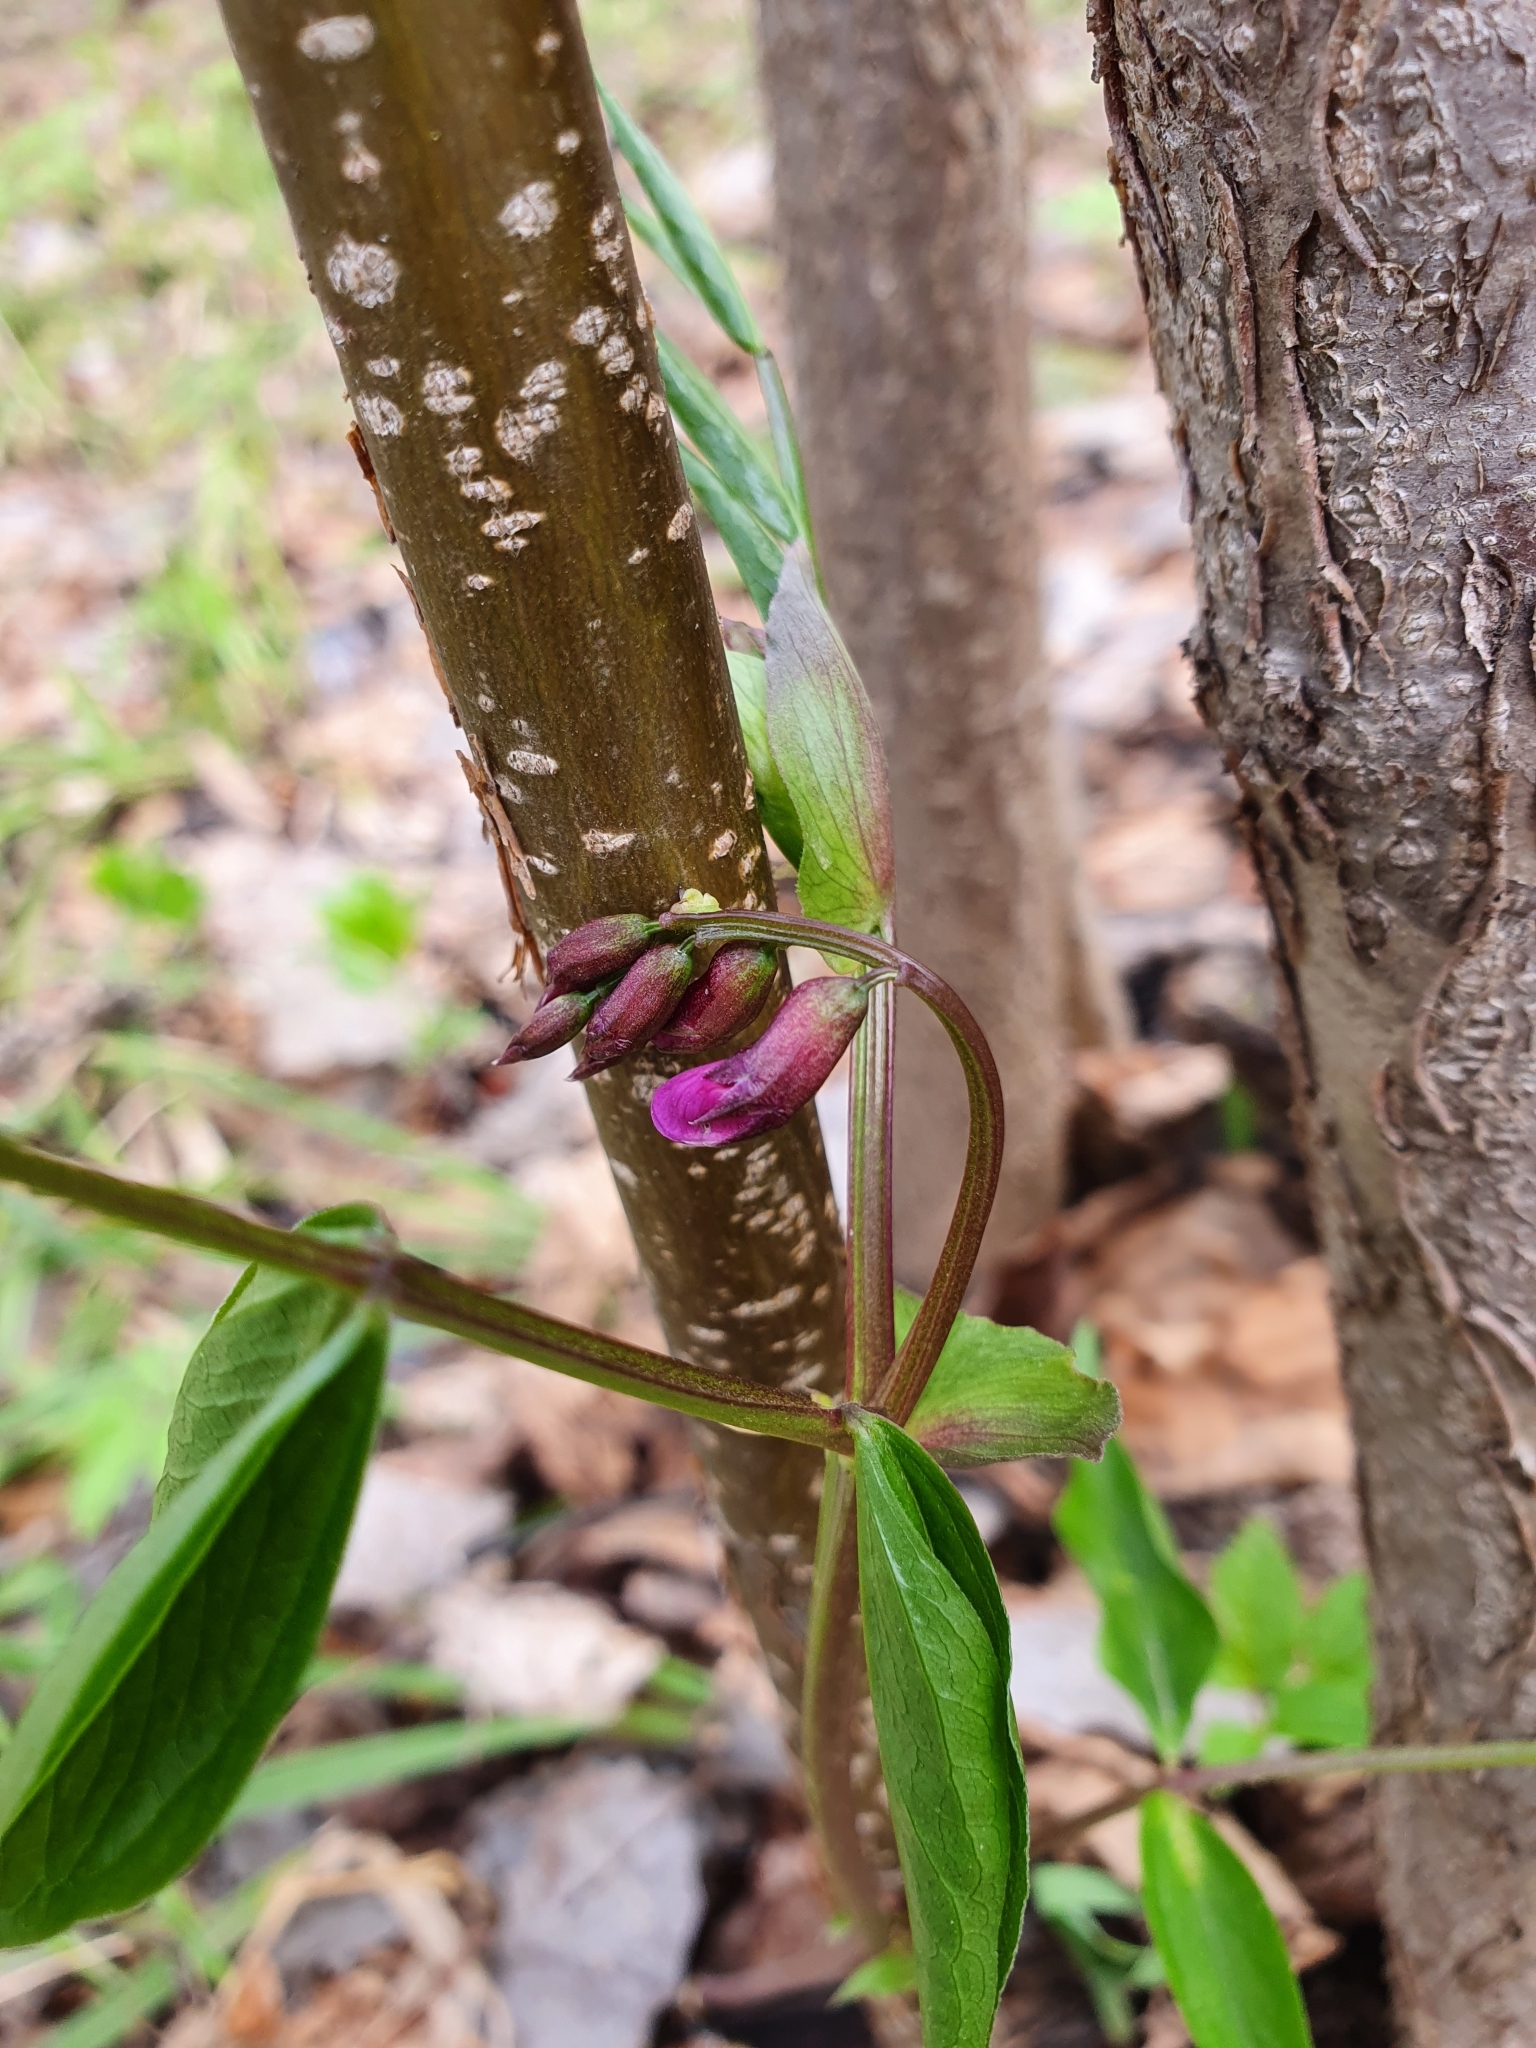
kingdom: Plantae
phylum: Tracheophyta
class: Magnoliopsida
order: Fabales
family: Fabaceae
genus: Lathyrus
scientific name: Lathyrus vernus
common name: Spring pea
